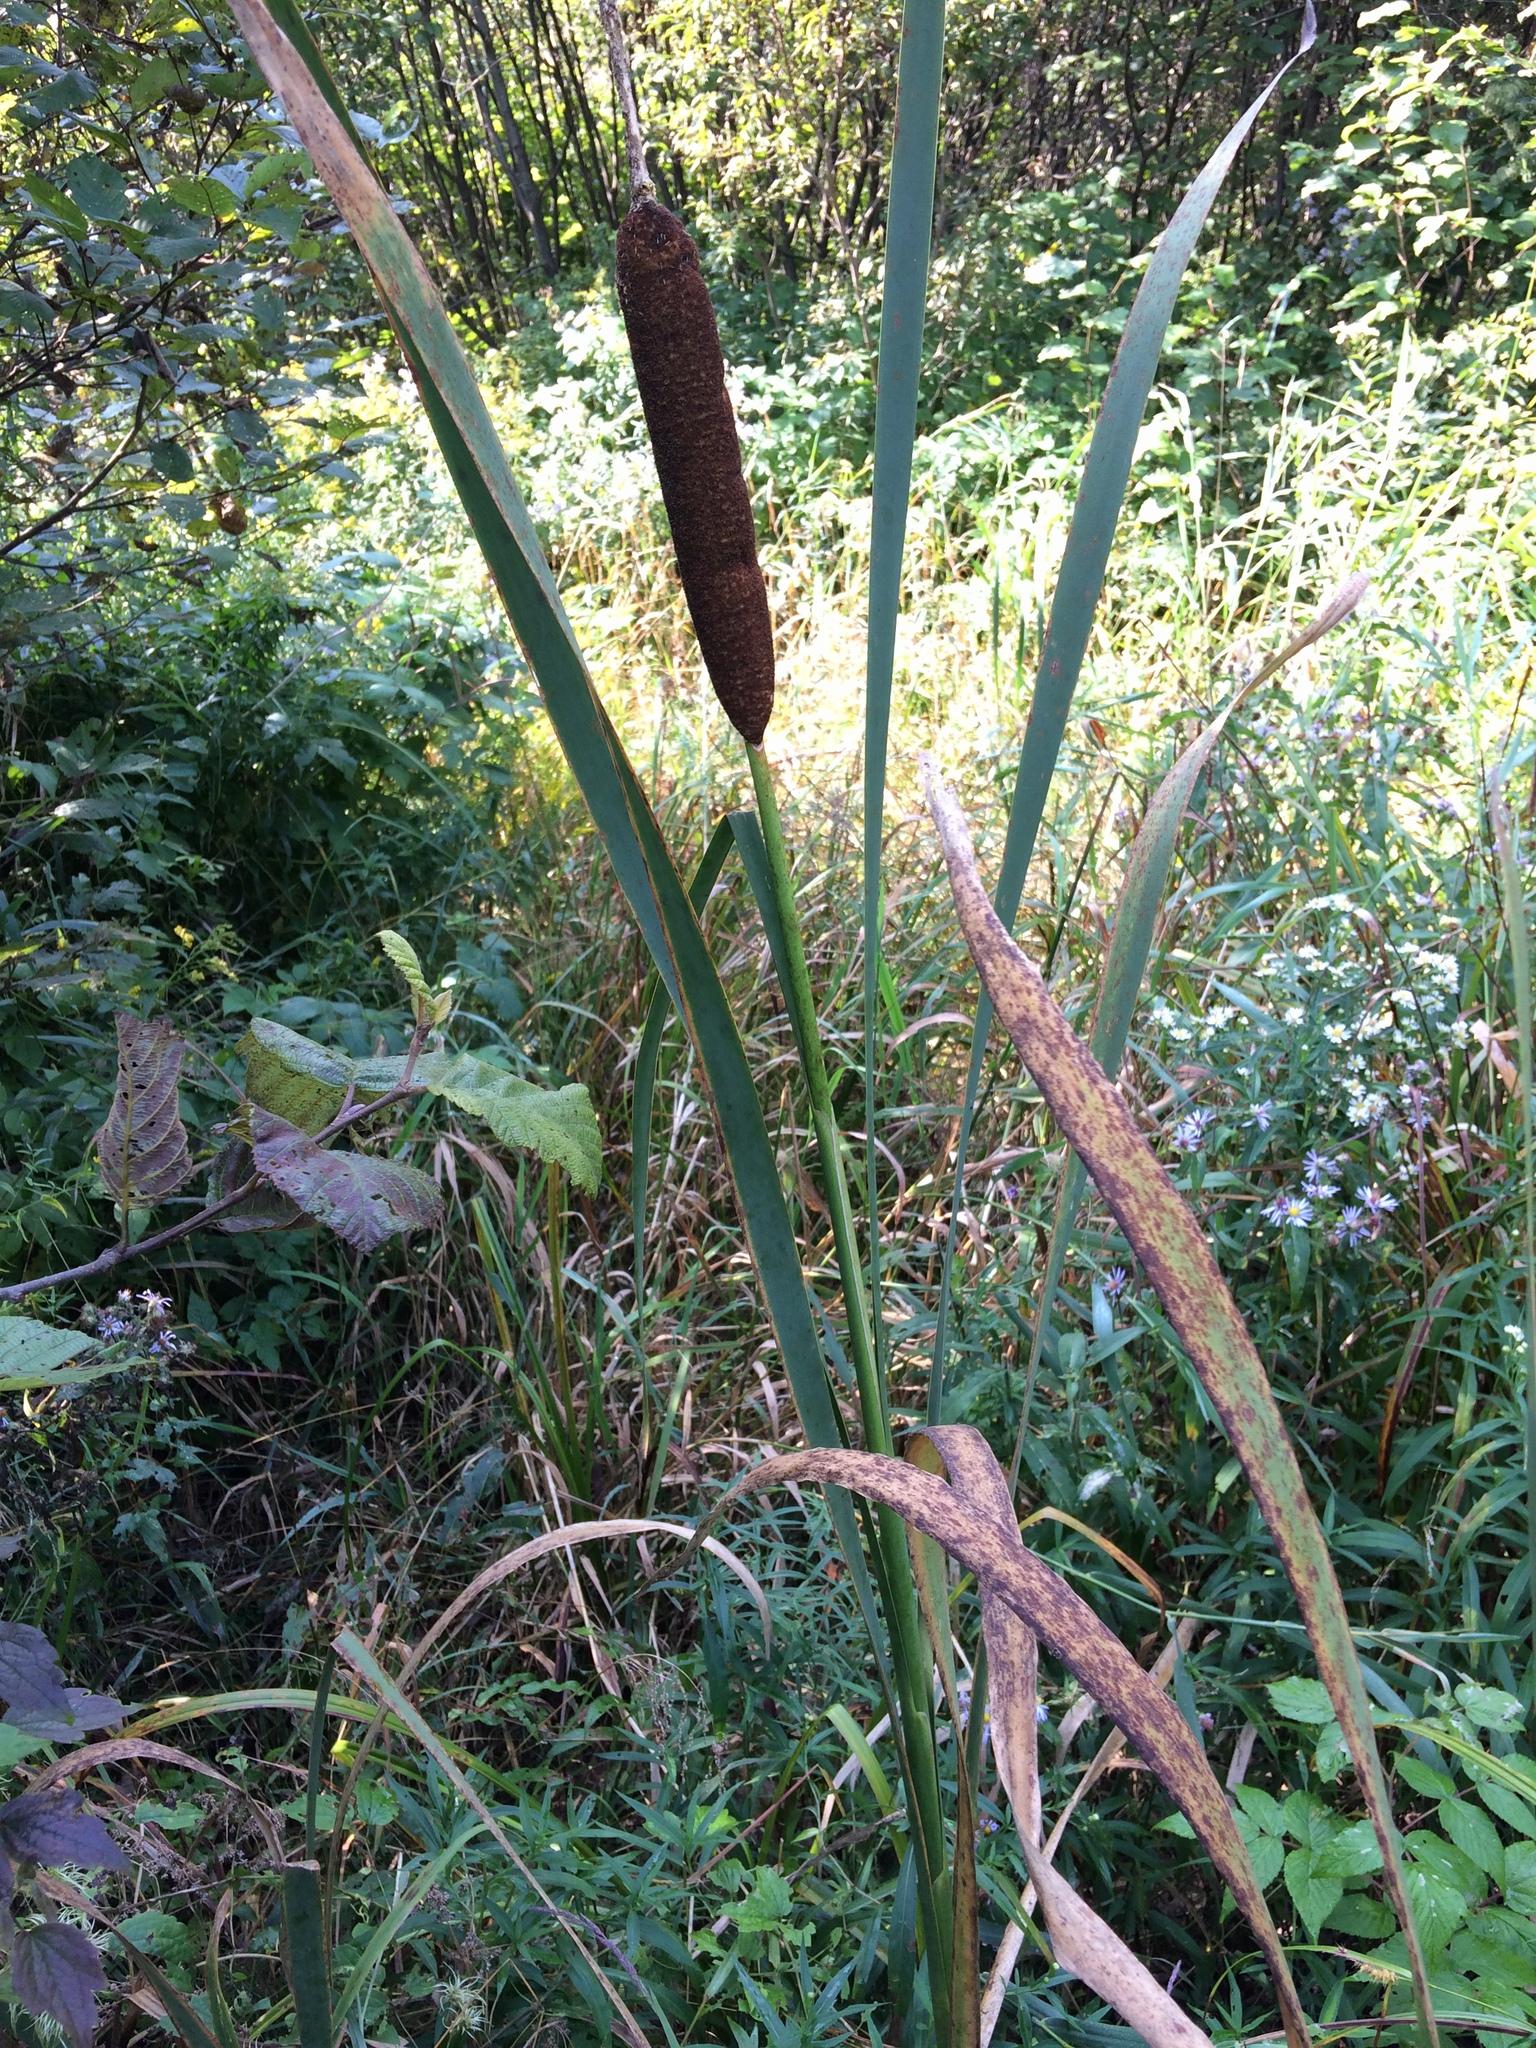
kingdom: Plantae
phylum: Tracheophyta
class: Liliopsida
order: Poales
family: Typhaceae
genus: Typha
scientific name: Typha latifolia
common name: Broadleaf cattail
